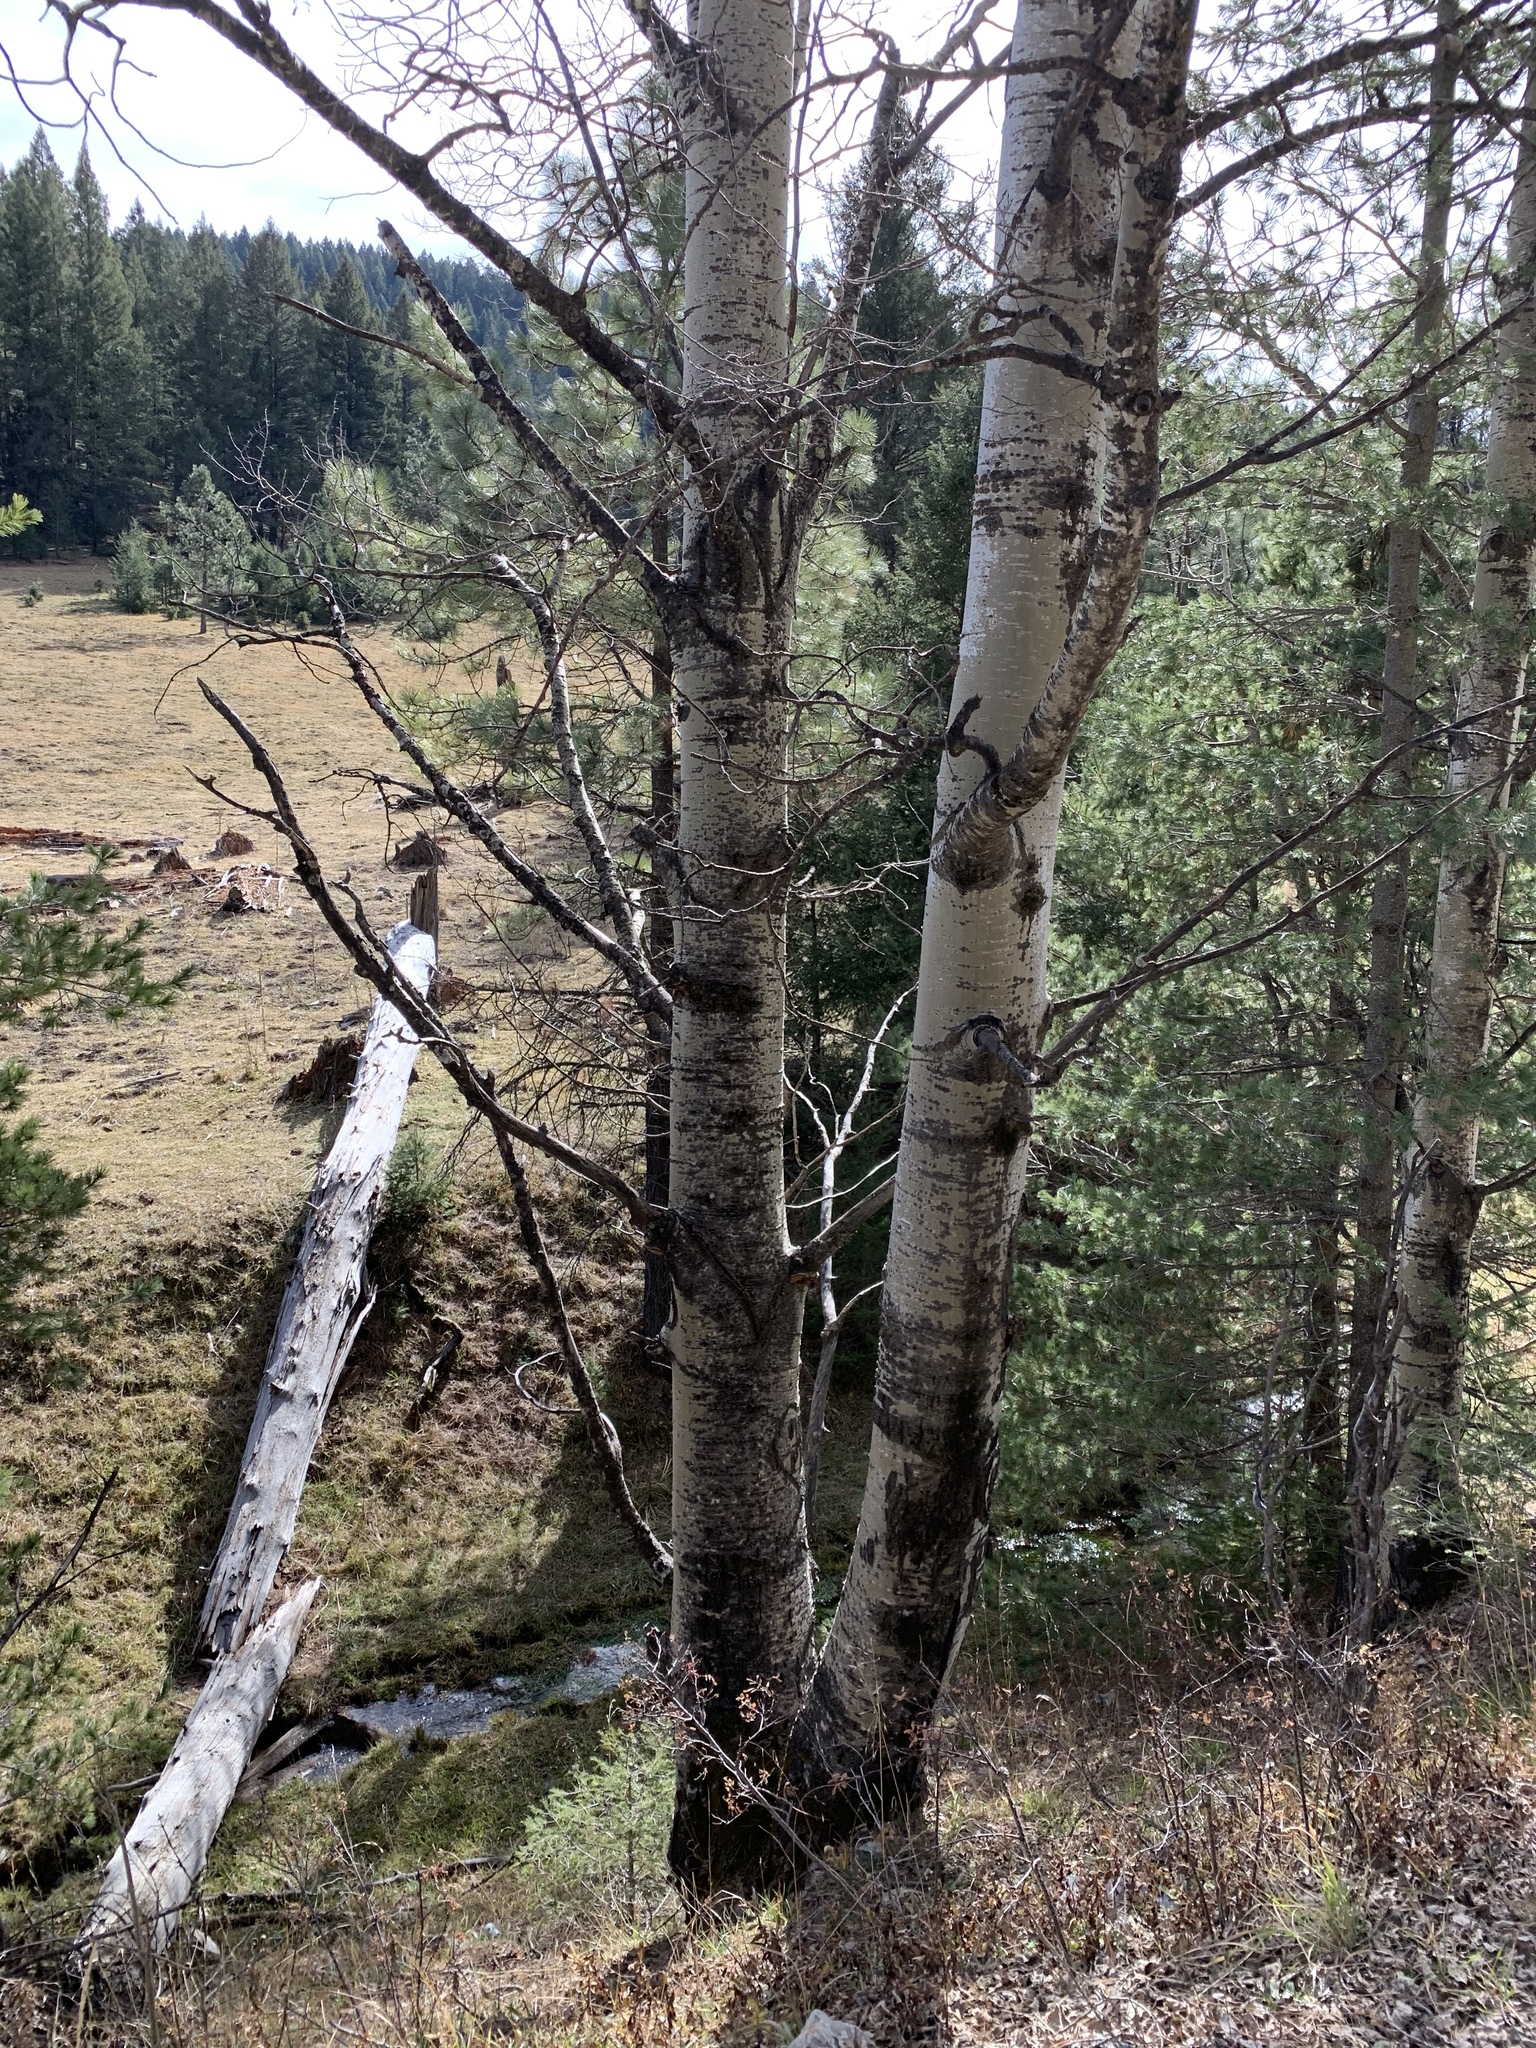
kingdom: Plantae
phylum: Tracheophyta
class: Magnoliopsida
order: Malpighiales
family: Salicaceae
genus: Populus
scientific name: Populus tremuloides
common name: Quaking aspen
